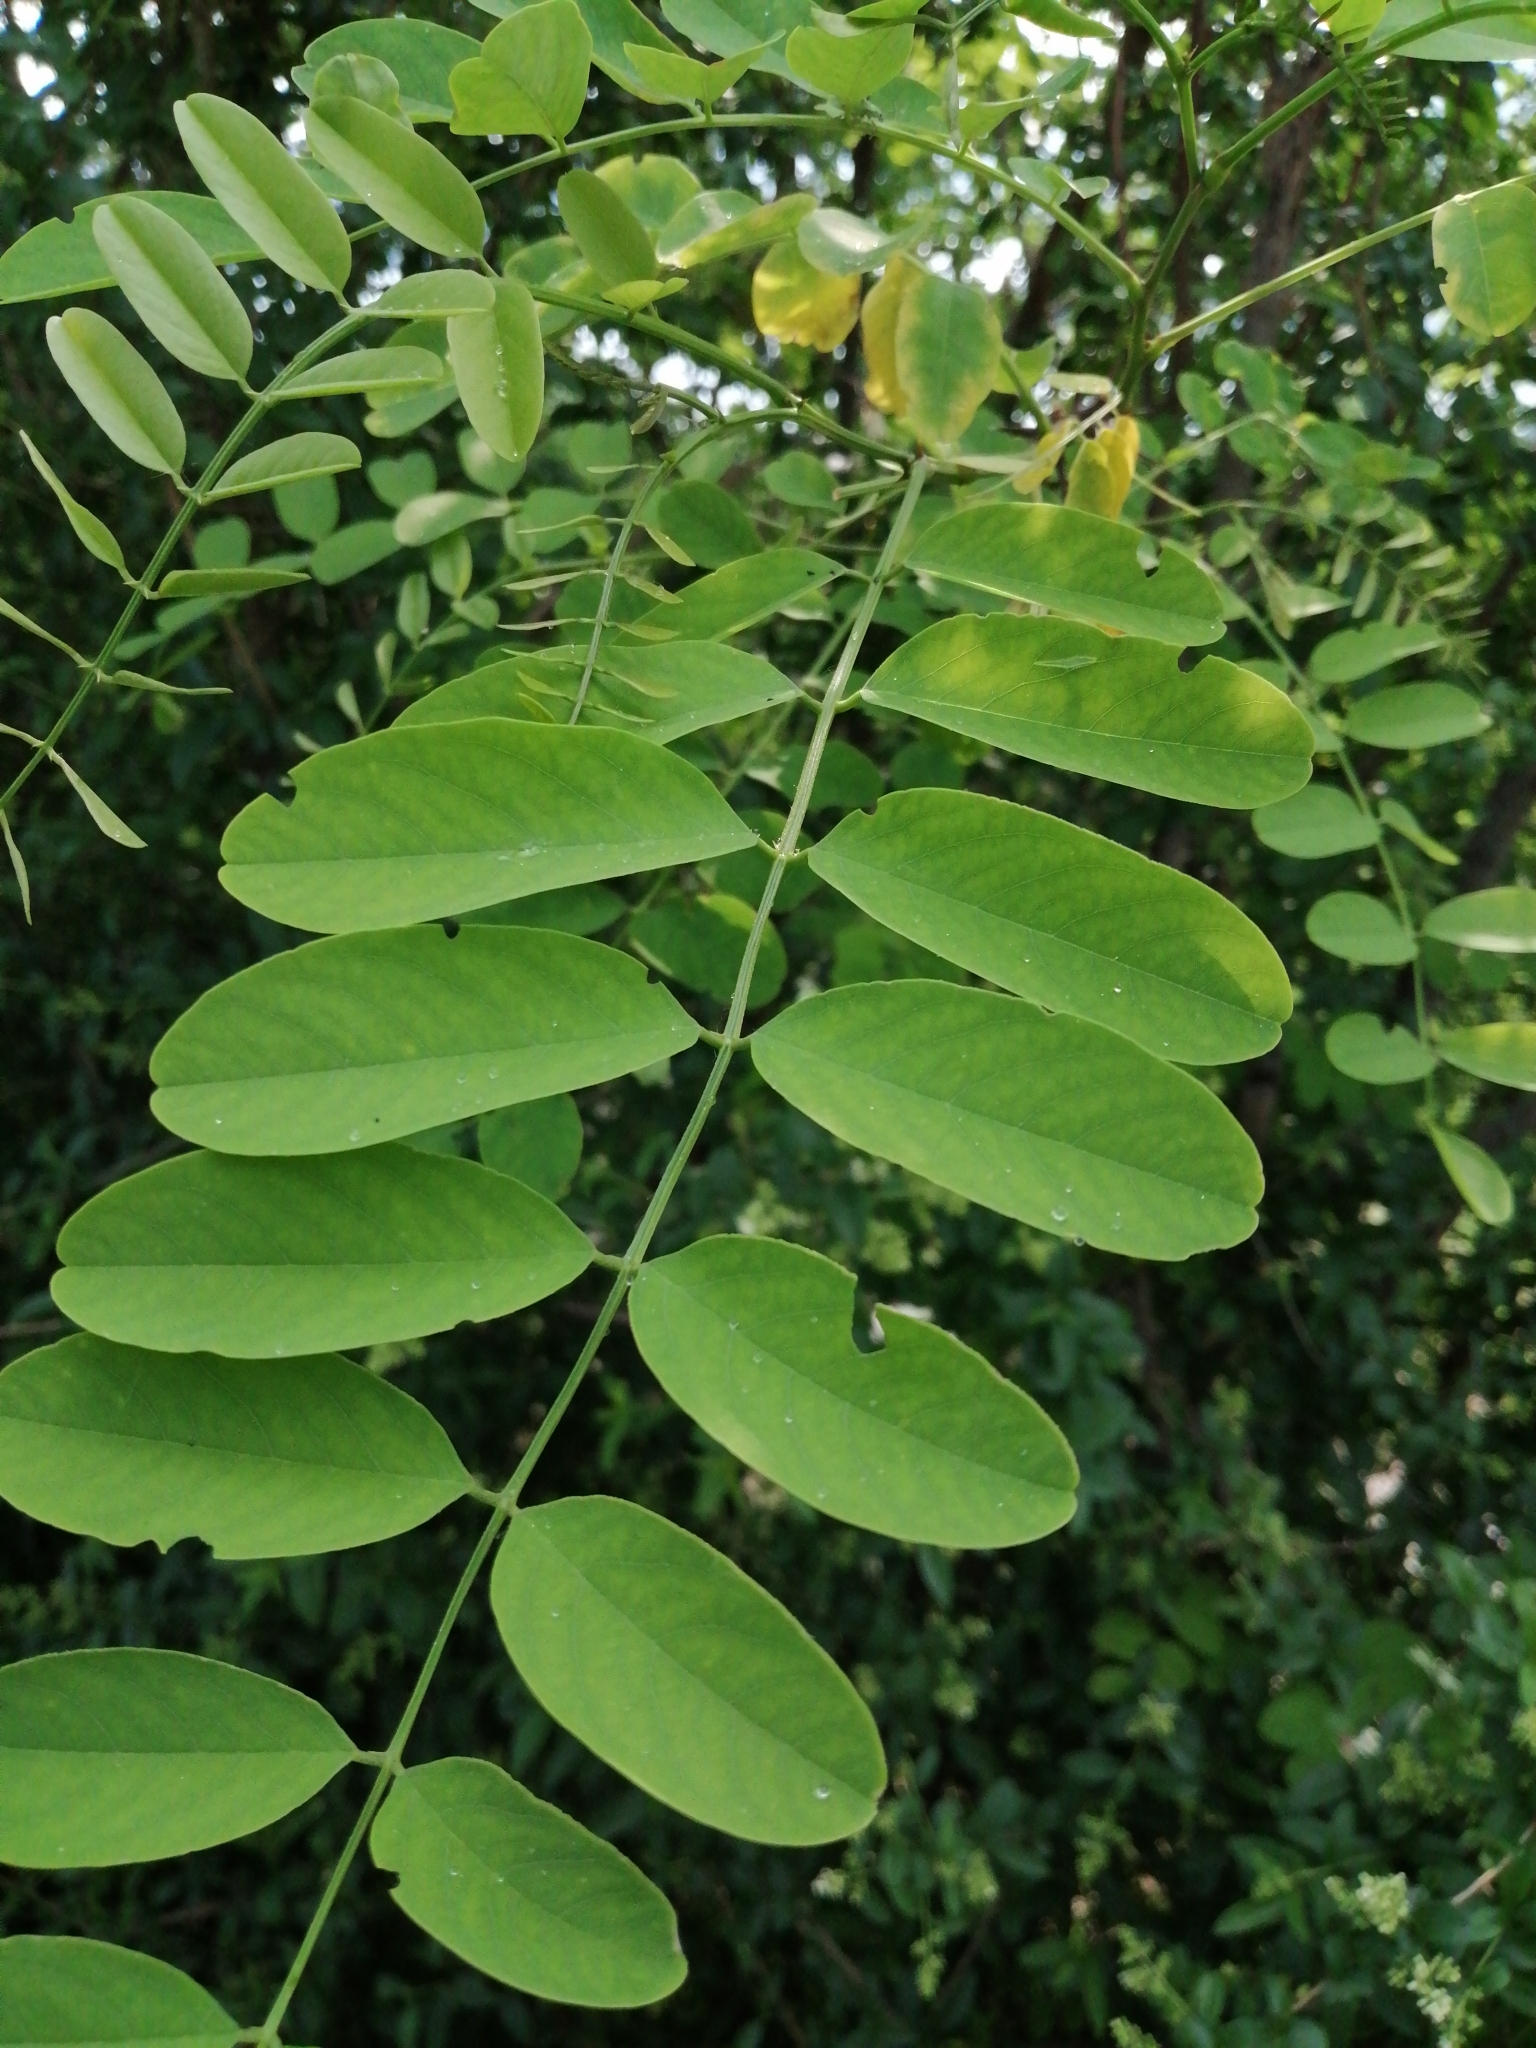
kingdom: Plantae
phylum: Tracheophyta
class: Magnoliopsida
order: Fabales
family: Fabaceae
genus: Robinia
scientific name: Robinia pseudoacacia
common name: Black locust
